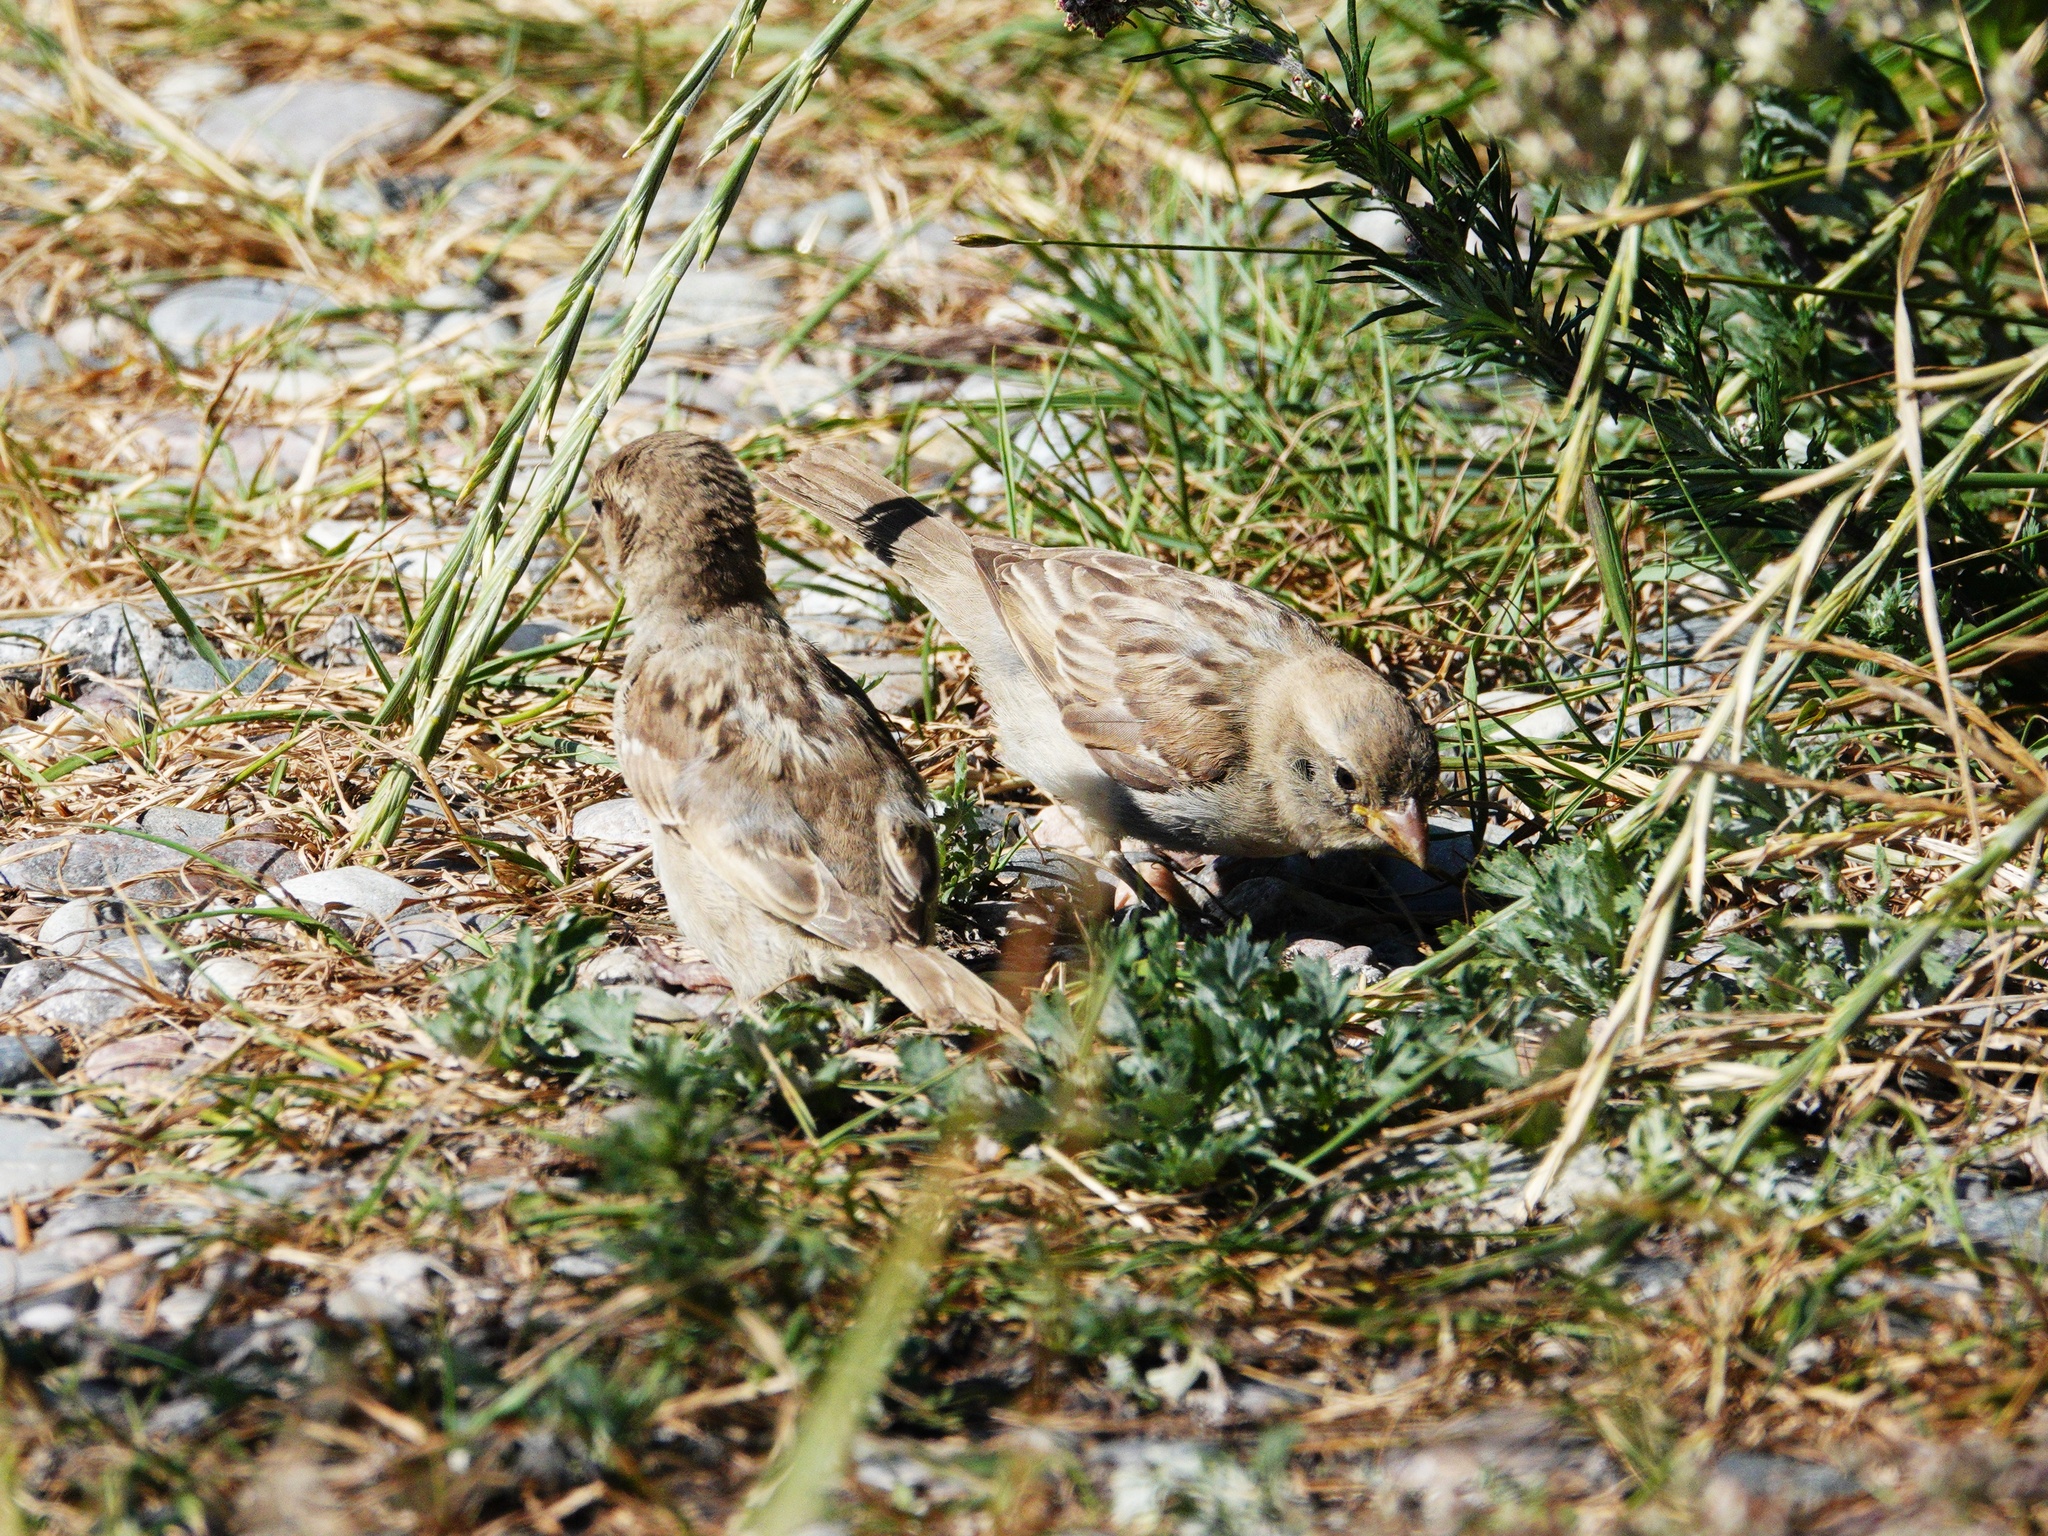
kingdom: Animalia
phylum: Chordata
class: Aves
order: Passeriformes
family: Passeridae
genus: Passer
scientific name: Passer domesticus
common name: House sparrow
